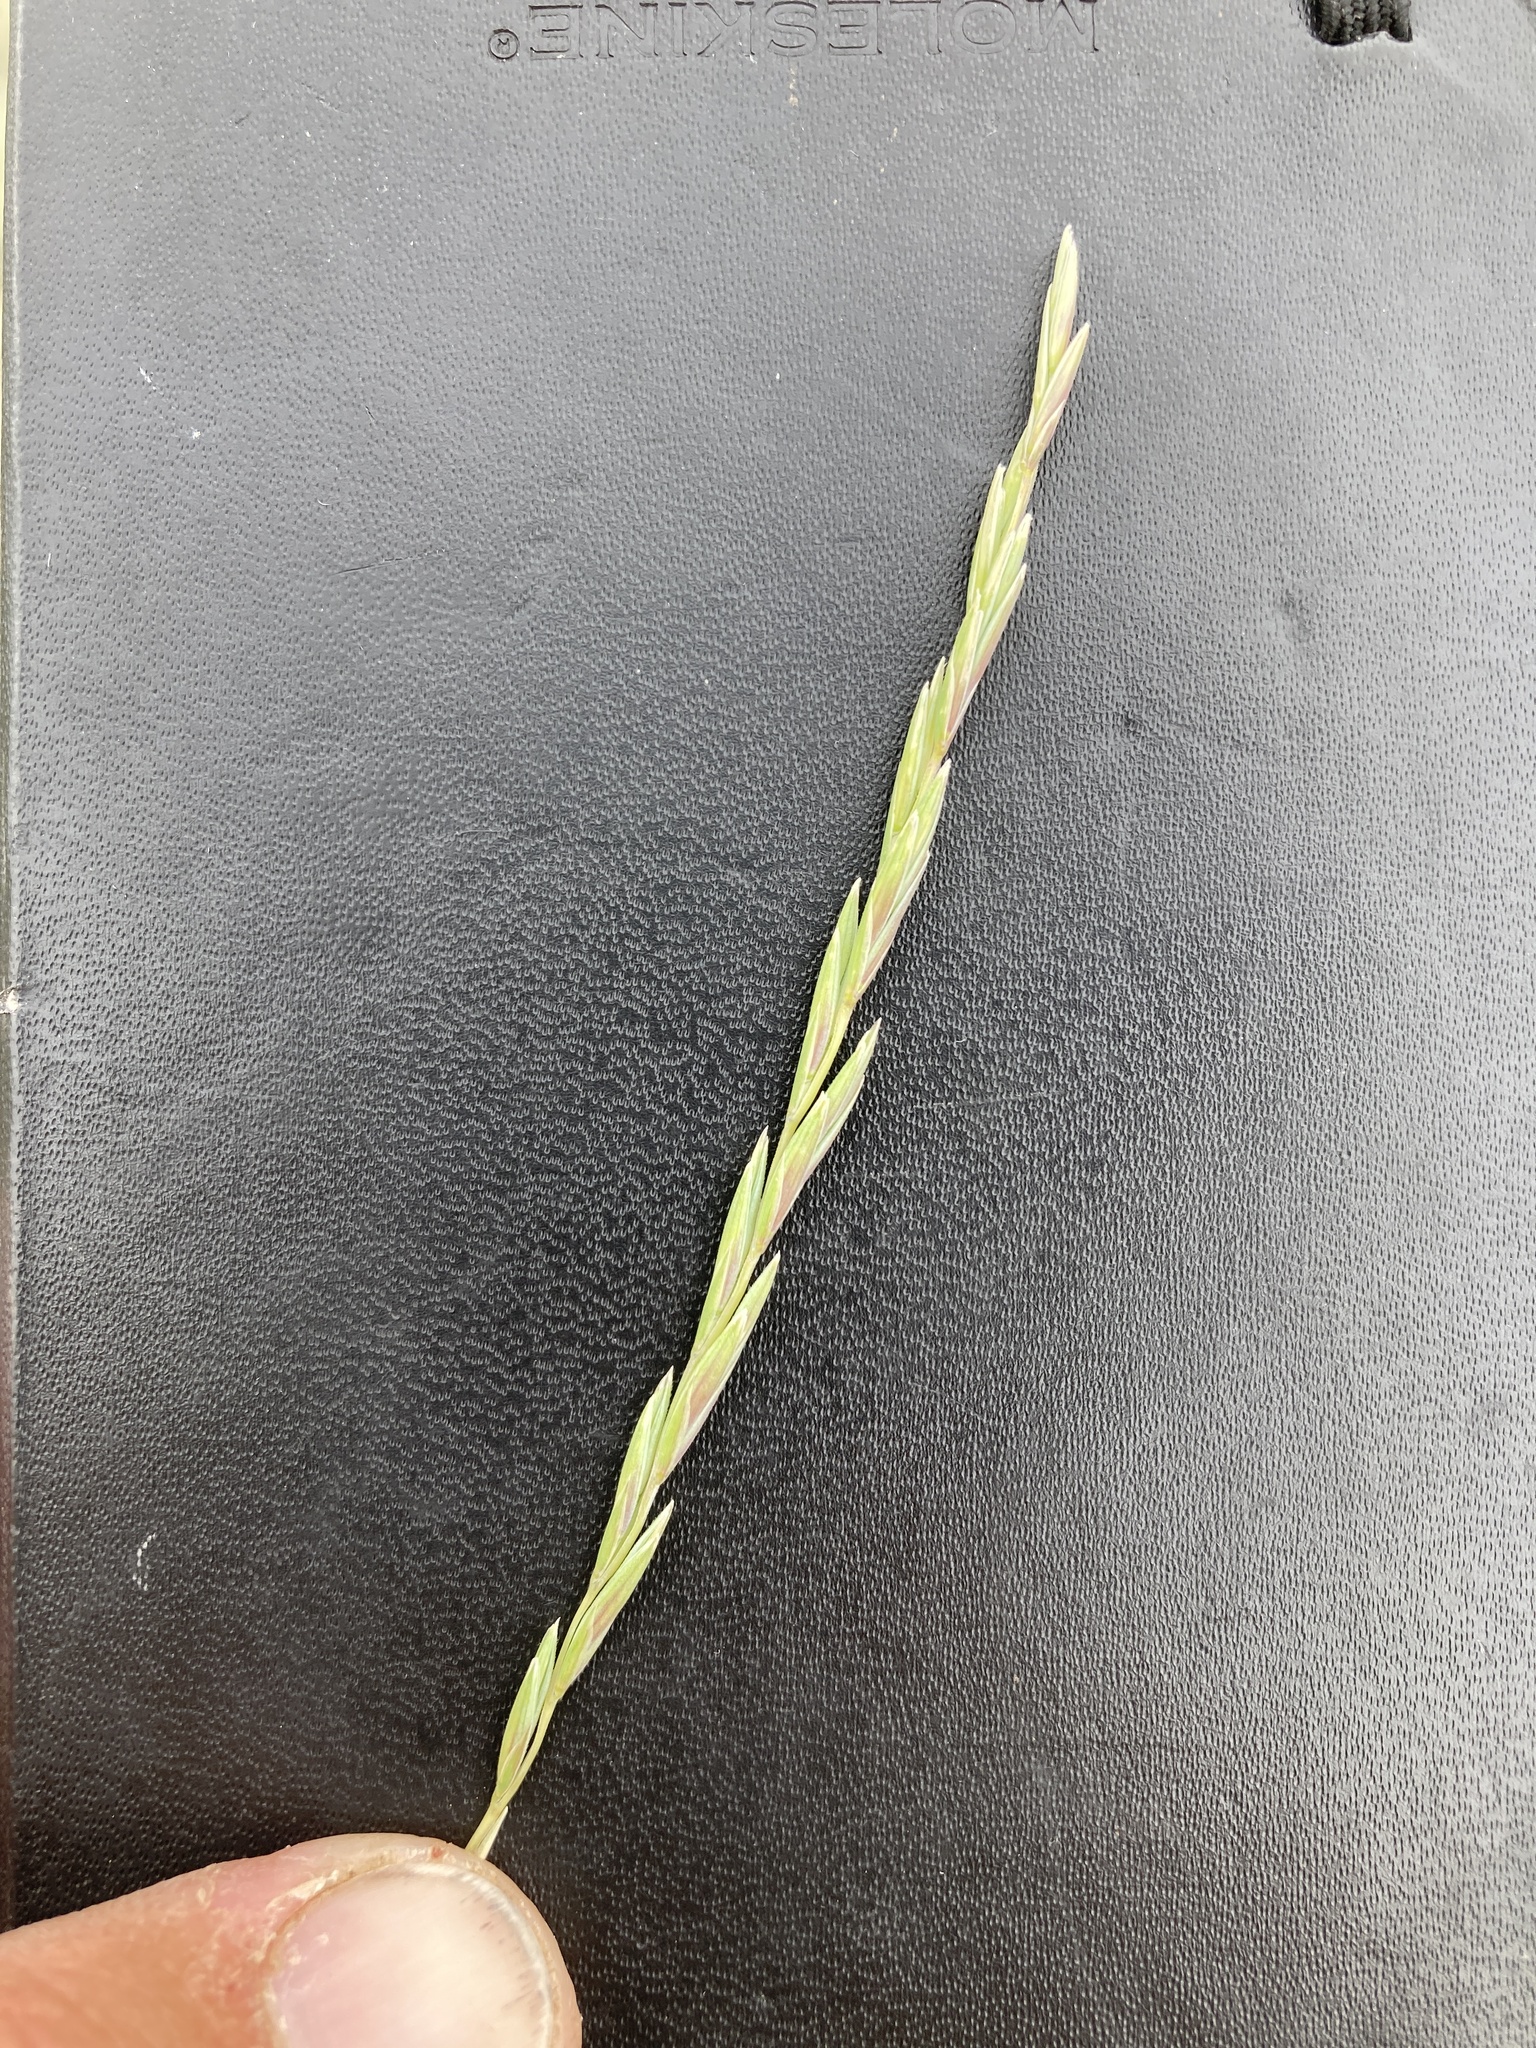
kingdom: Plantae
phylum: Tracheophyta
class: Liliopsida
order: Poales
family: Poaceae
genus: Elymus
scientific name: Elymus lanceolatus
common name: Thick-spike wheatgrass
